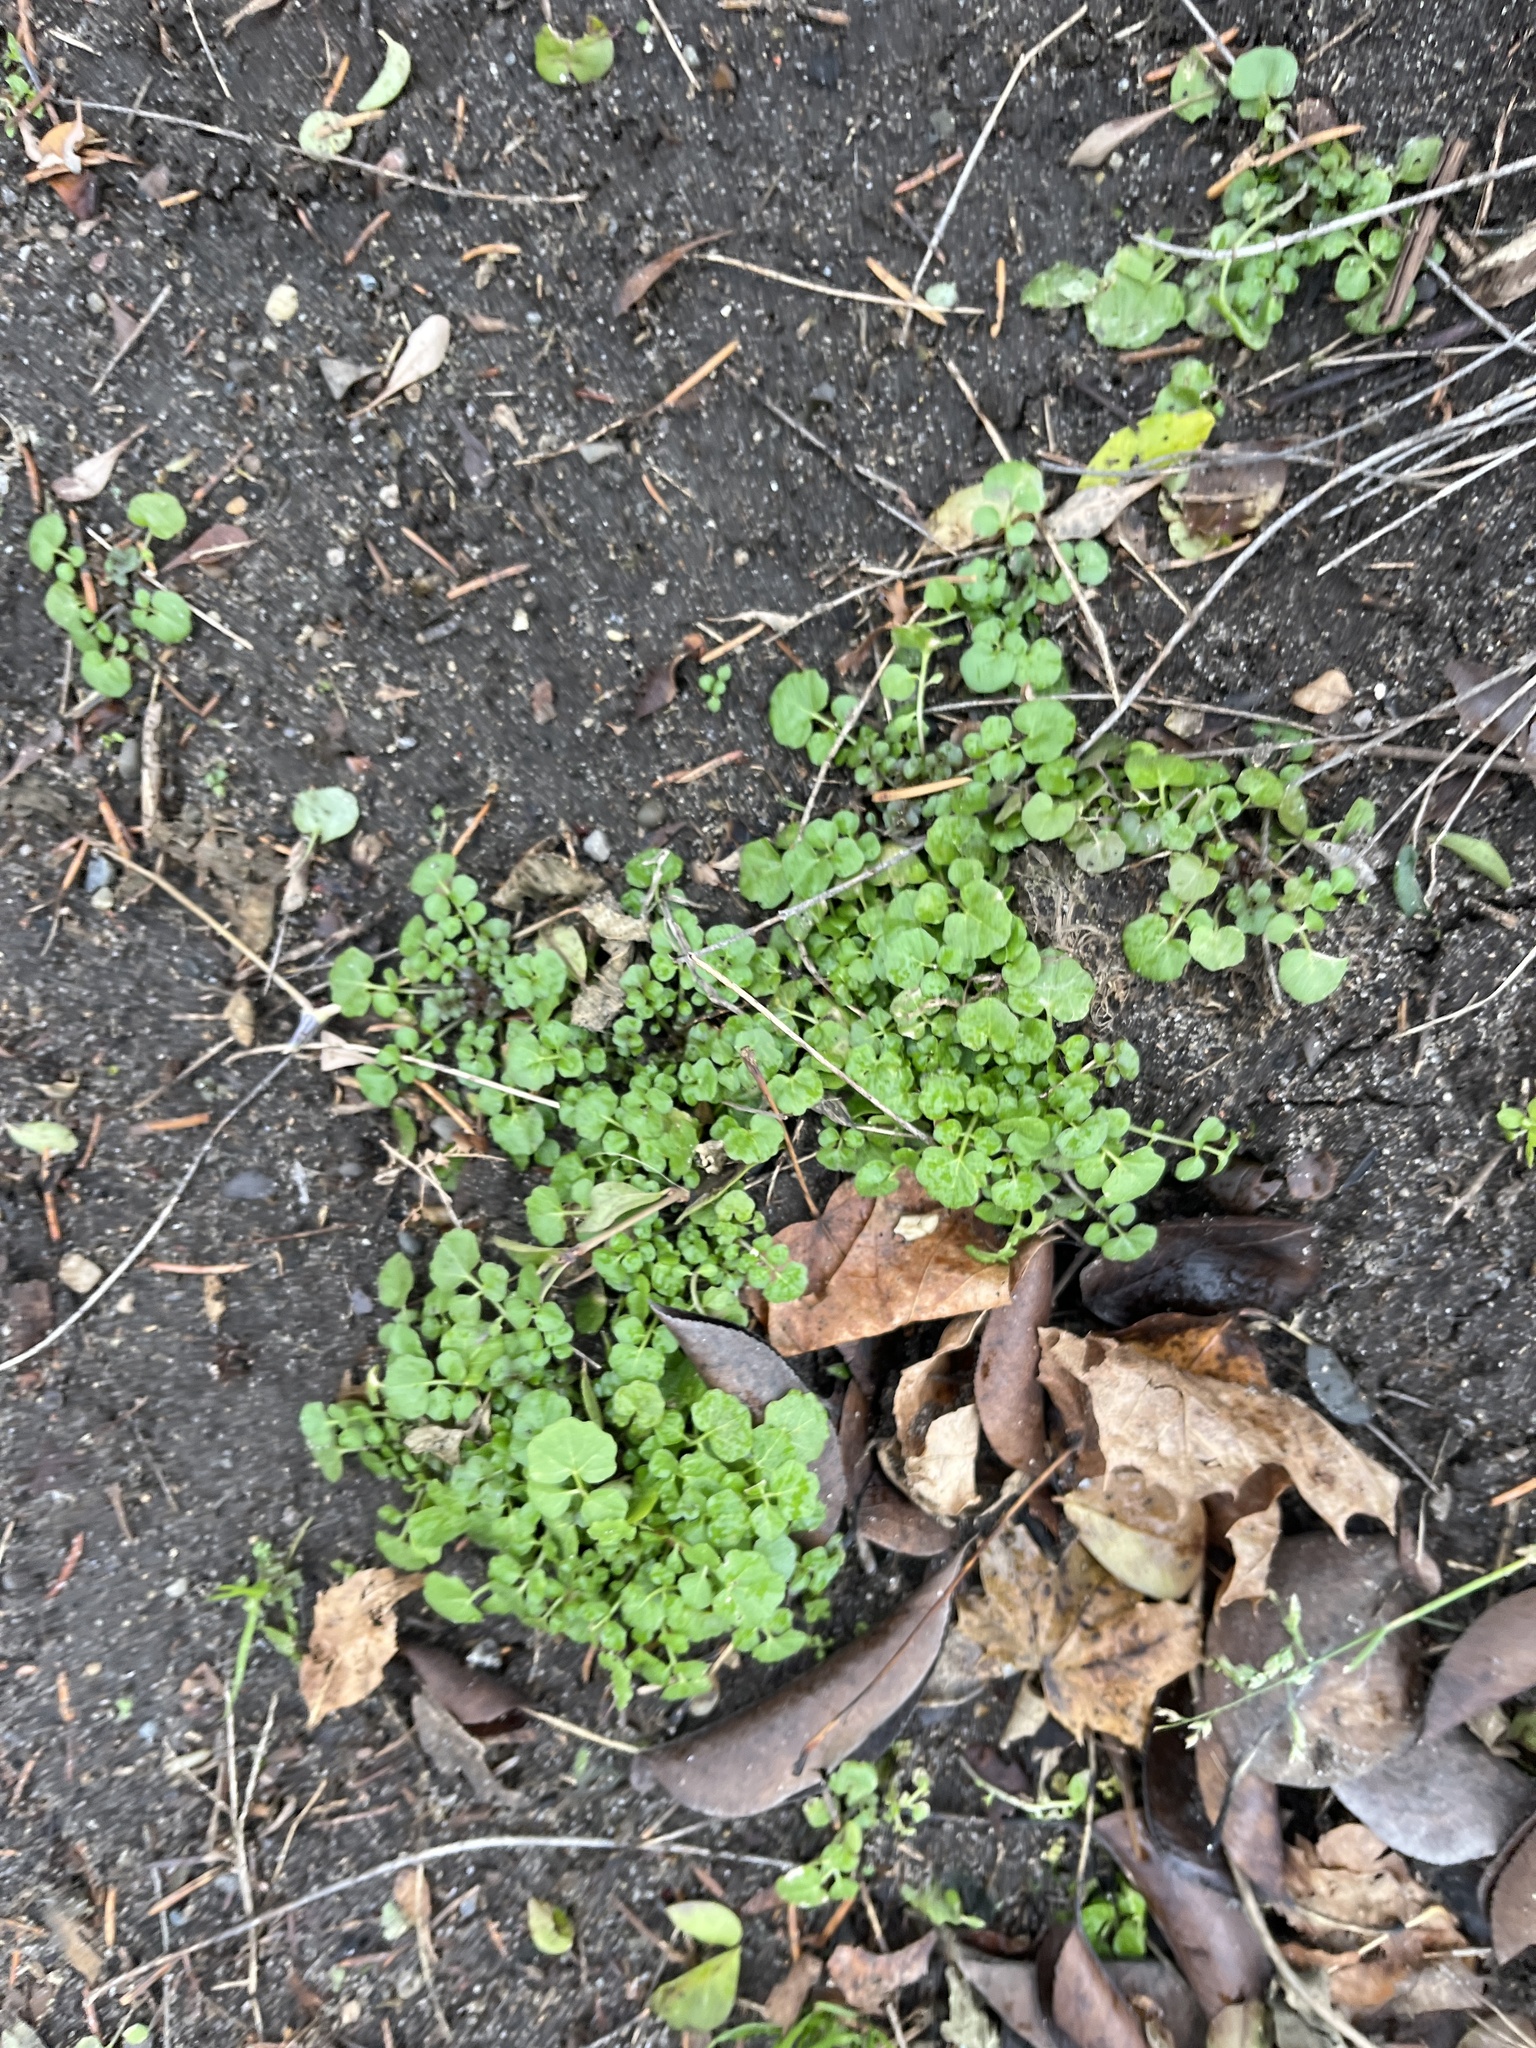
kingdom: Plantae
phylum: Tracheophyta
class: Magnoliopsida
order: Brassicales
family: Brassicaceae
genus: Cardamine
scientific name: Cardamine hirsuta
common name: Hairy bittercress
